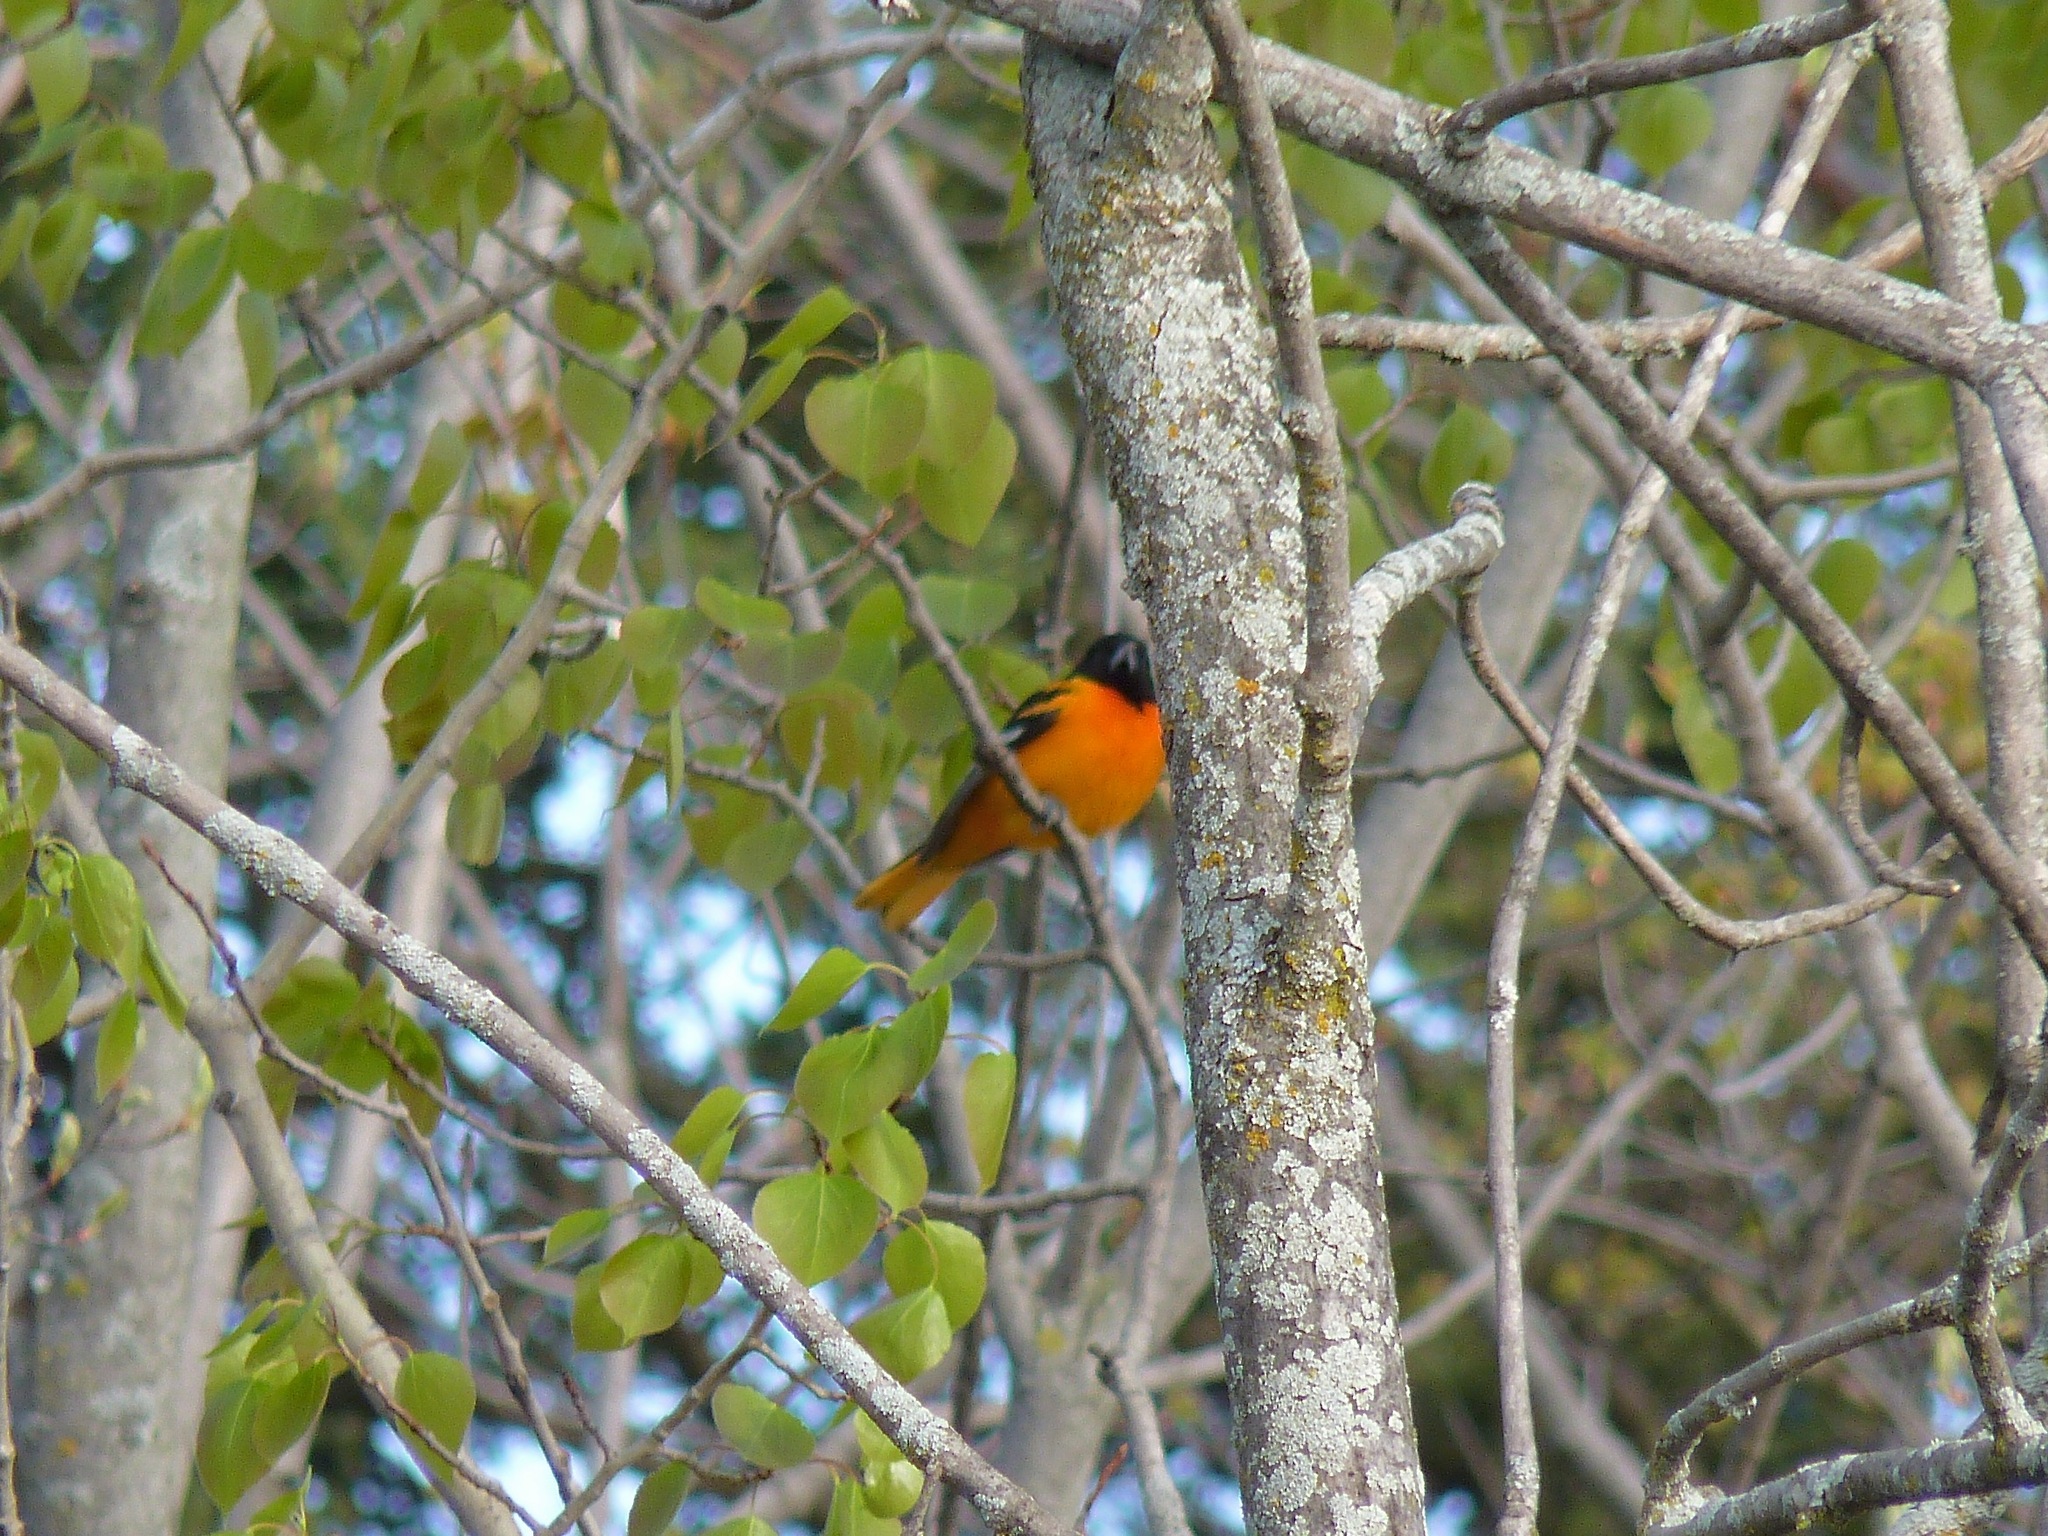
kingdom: Animalia
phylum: Chordata
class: Aves
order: Passeriformes
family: Icteridae
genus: Icterus
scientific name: Icterus galbula
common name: Baltimore oriole
